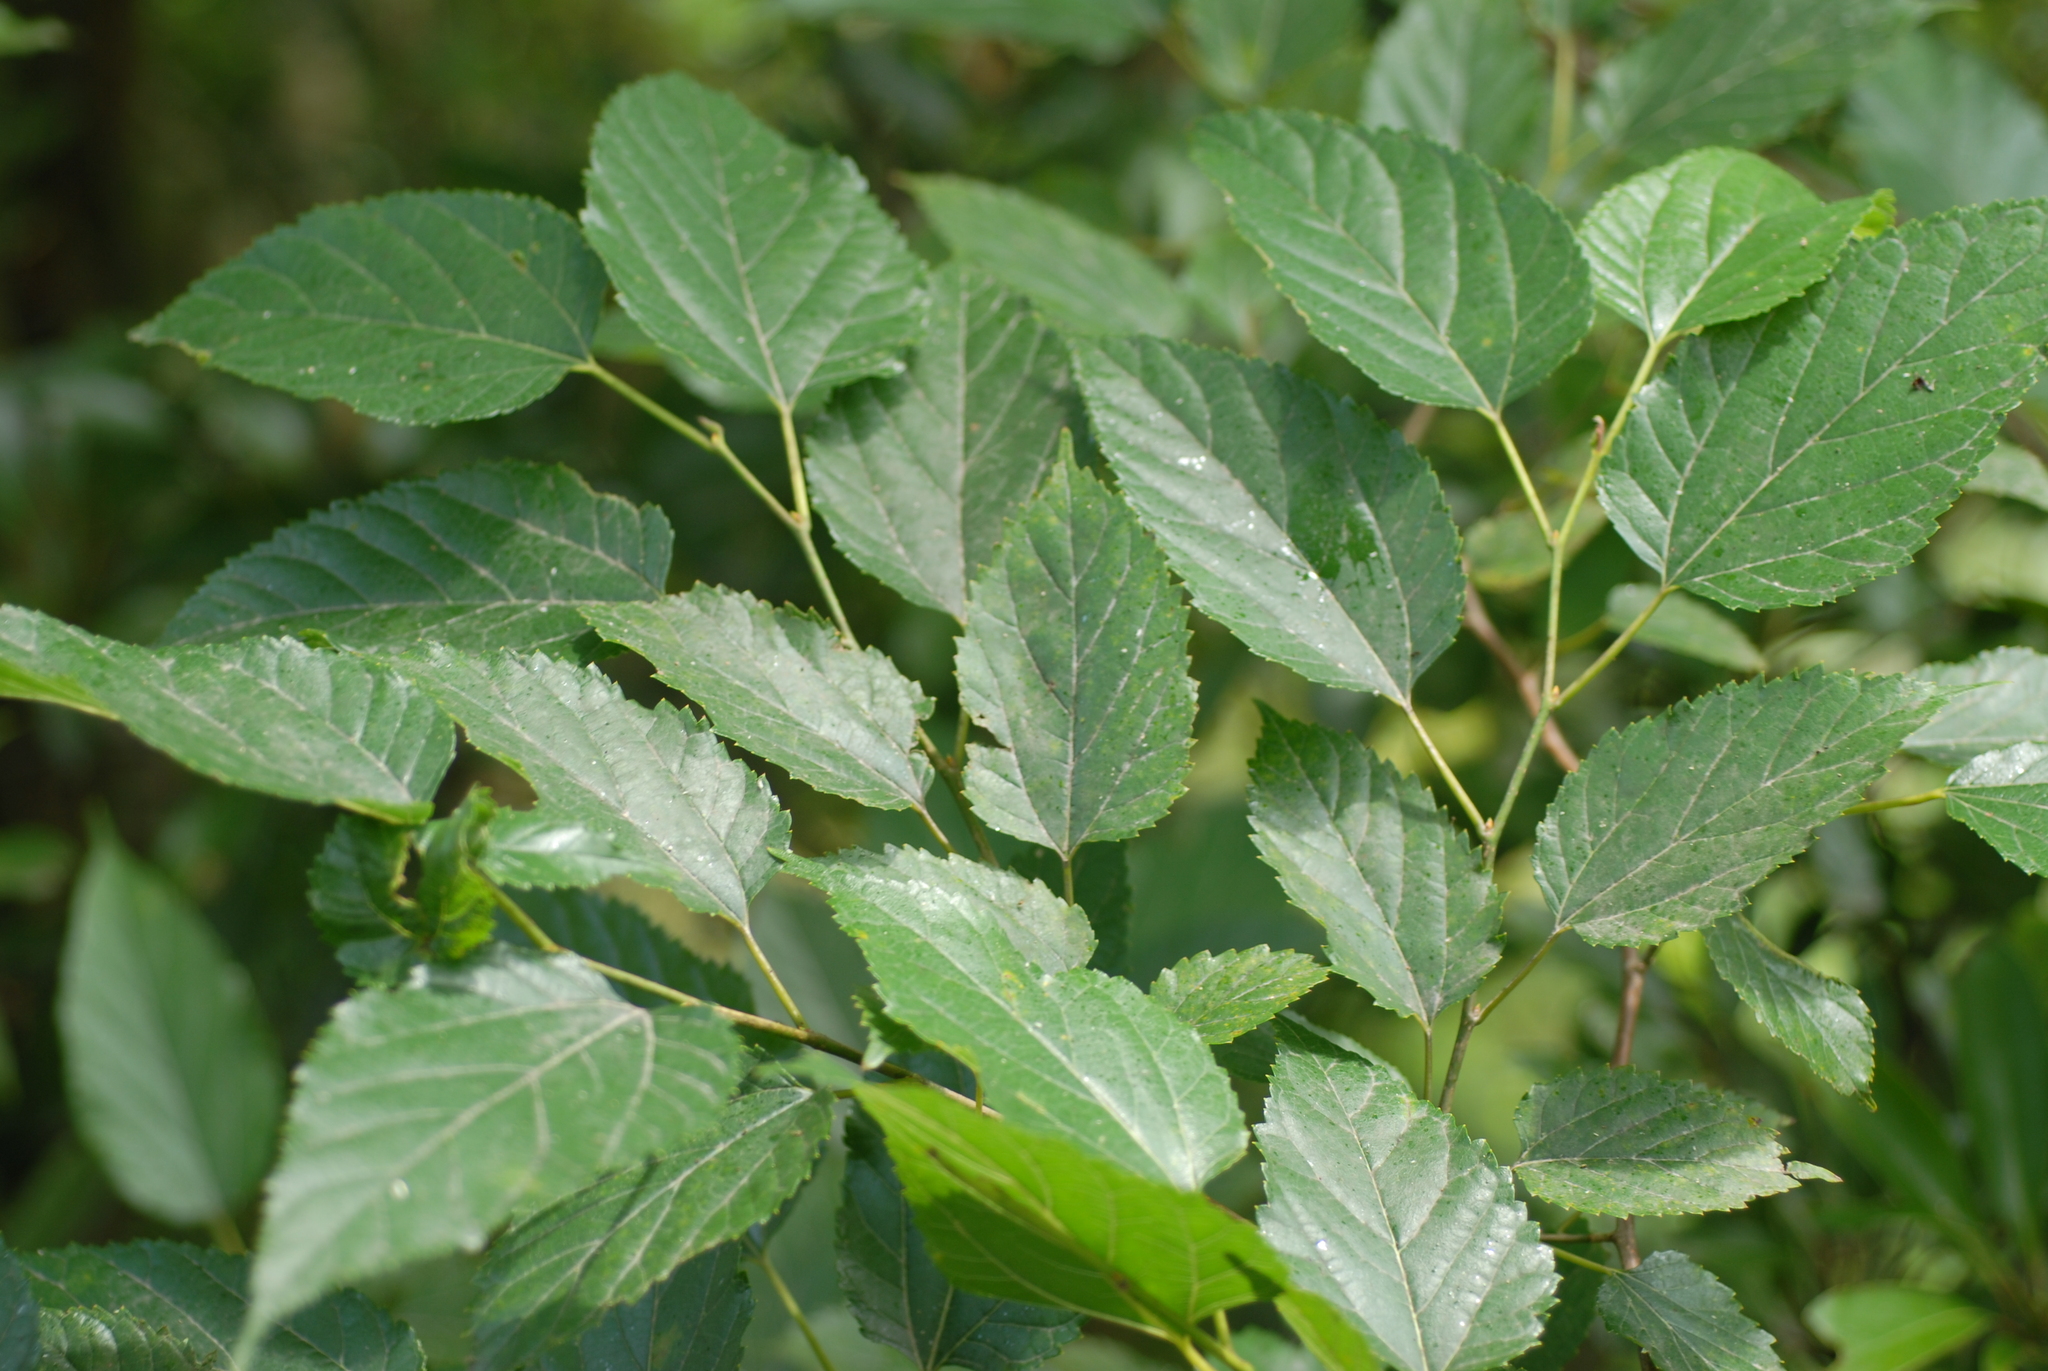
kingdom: Plantae
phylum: Tracheophyta
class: Magnoliopsida
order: Rosales
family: Moraceae
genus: Morus
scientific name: Morus indica
